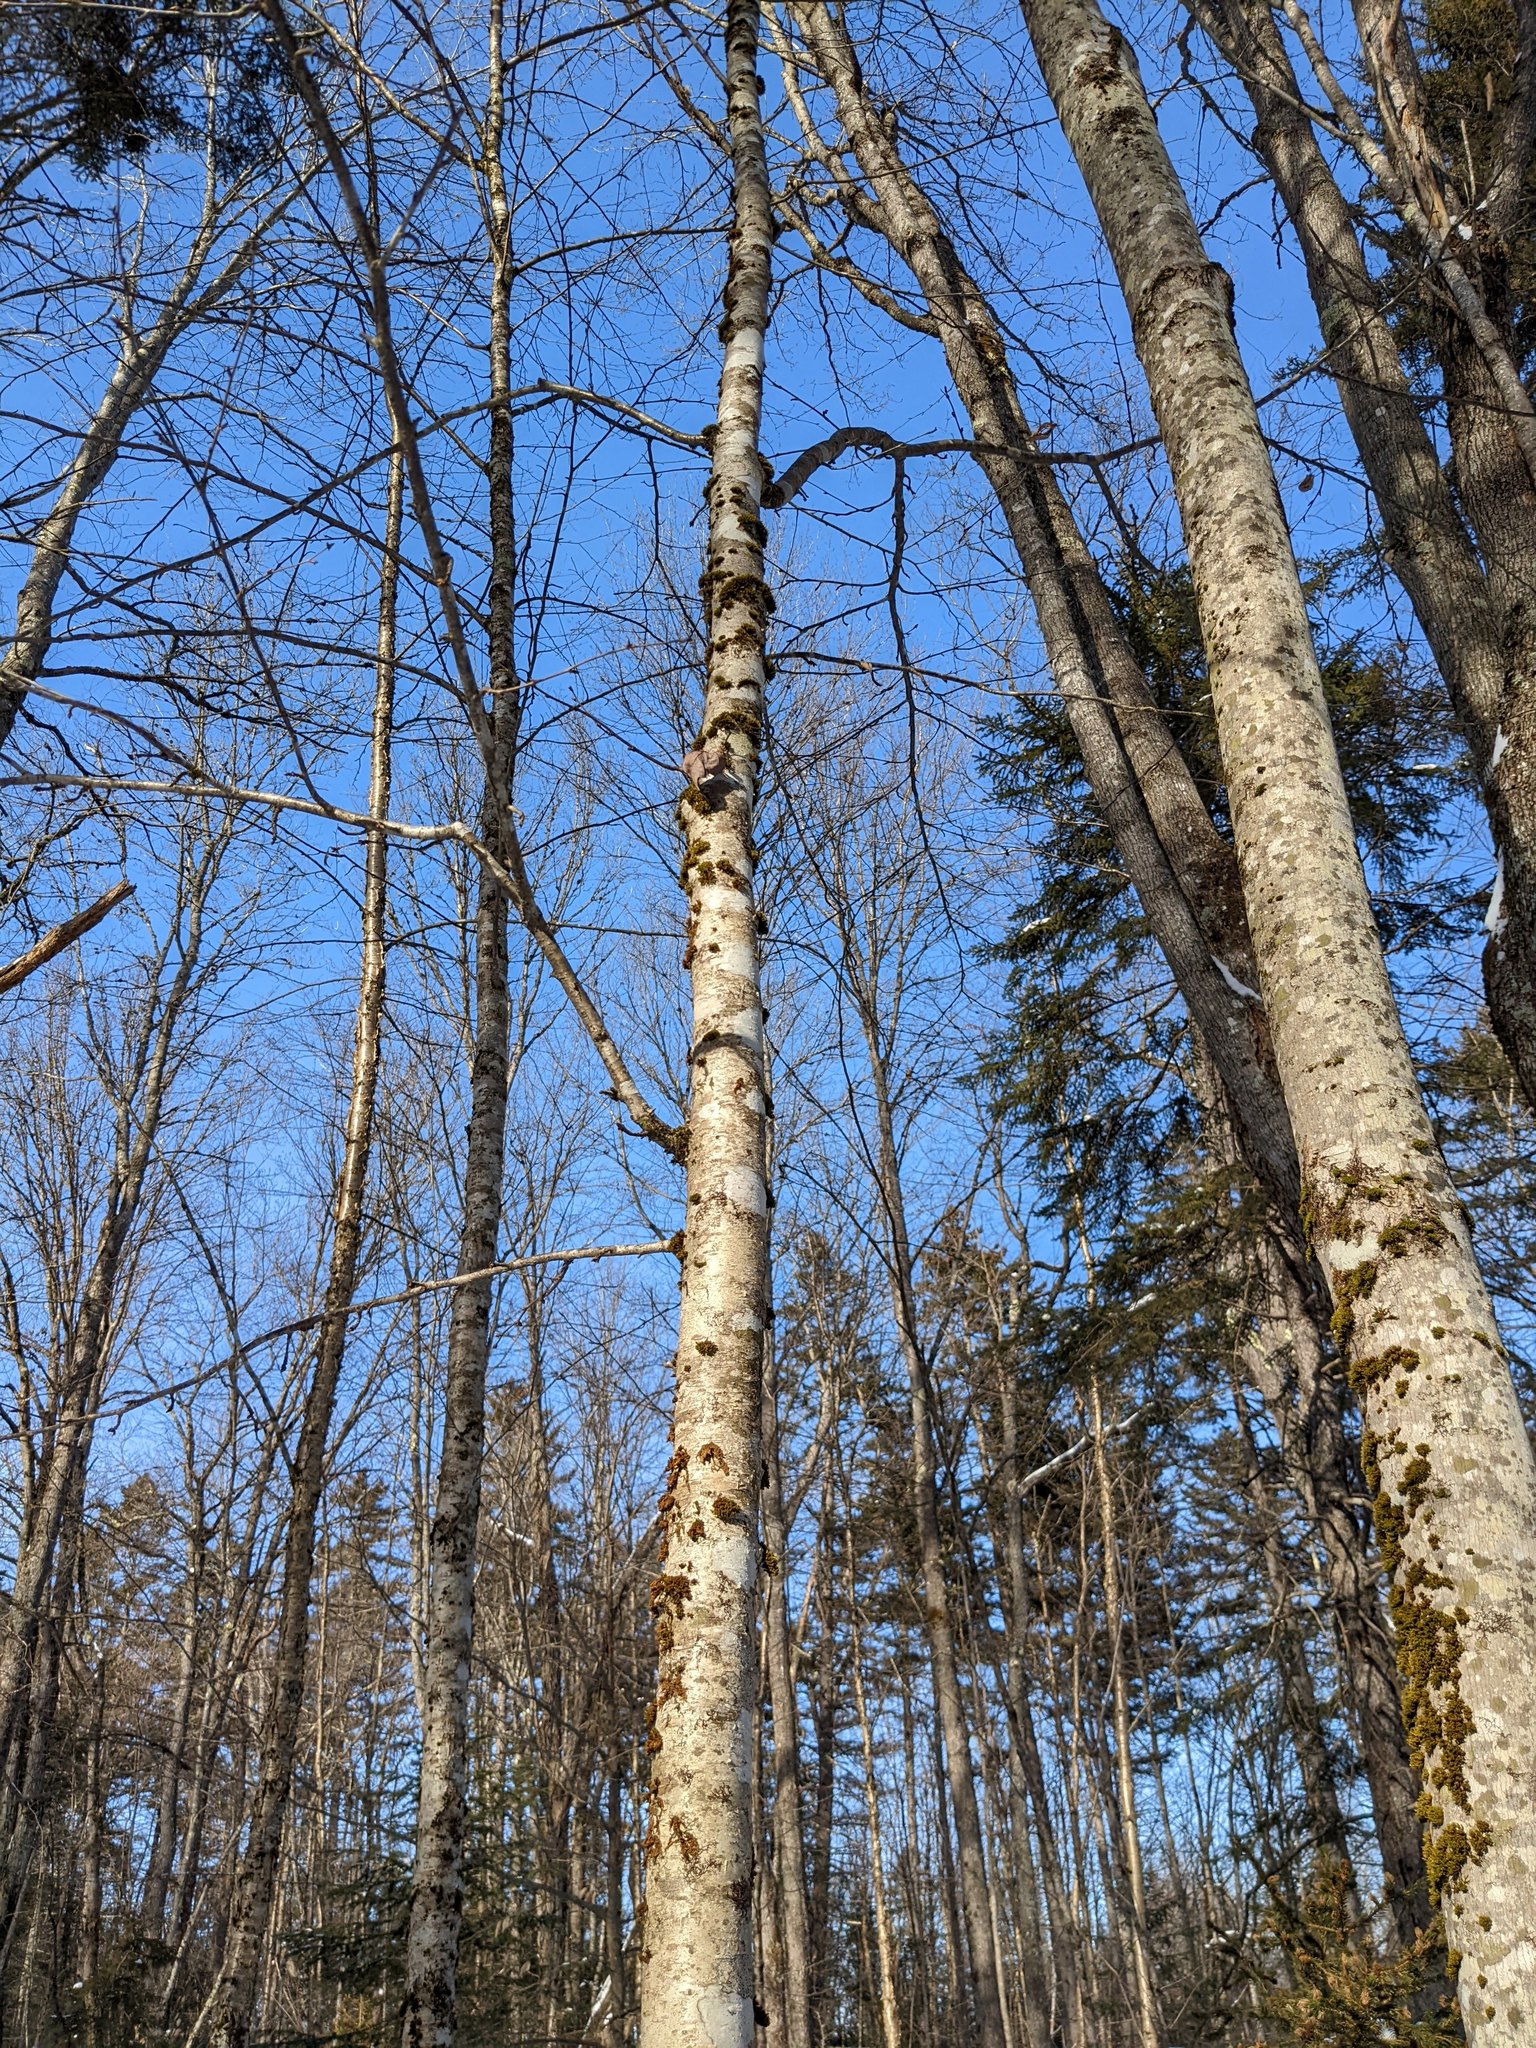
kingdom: Plantae
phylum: Tracheophyta
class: Magnoliopsida
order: Fagales
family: Betulaceae
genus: Betula
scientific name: Betula alleghaniensis
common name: Yellow birch
